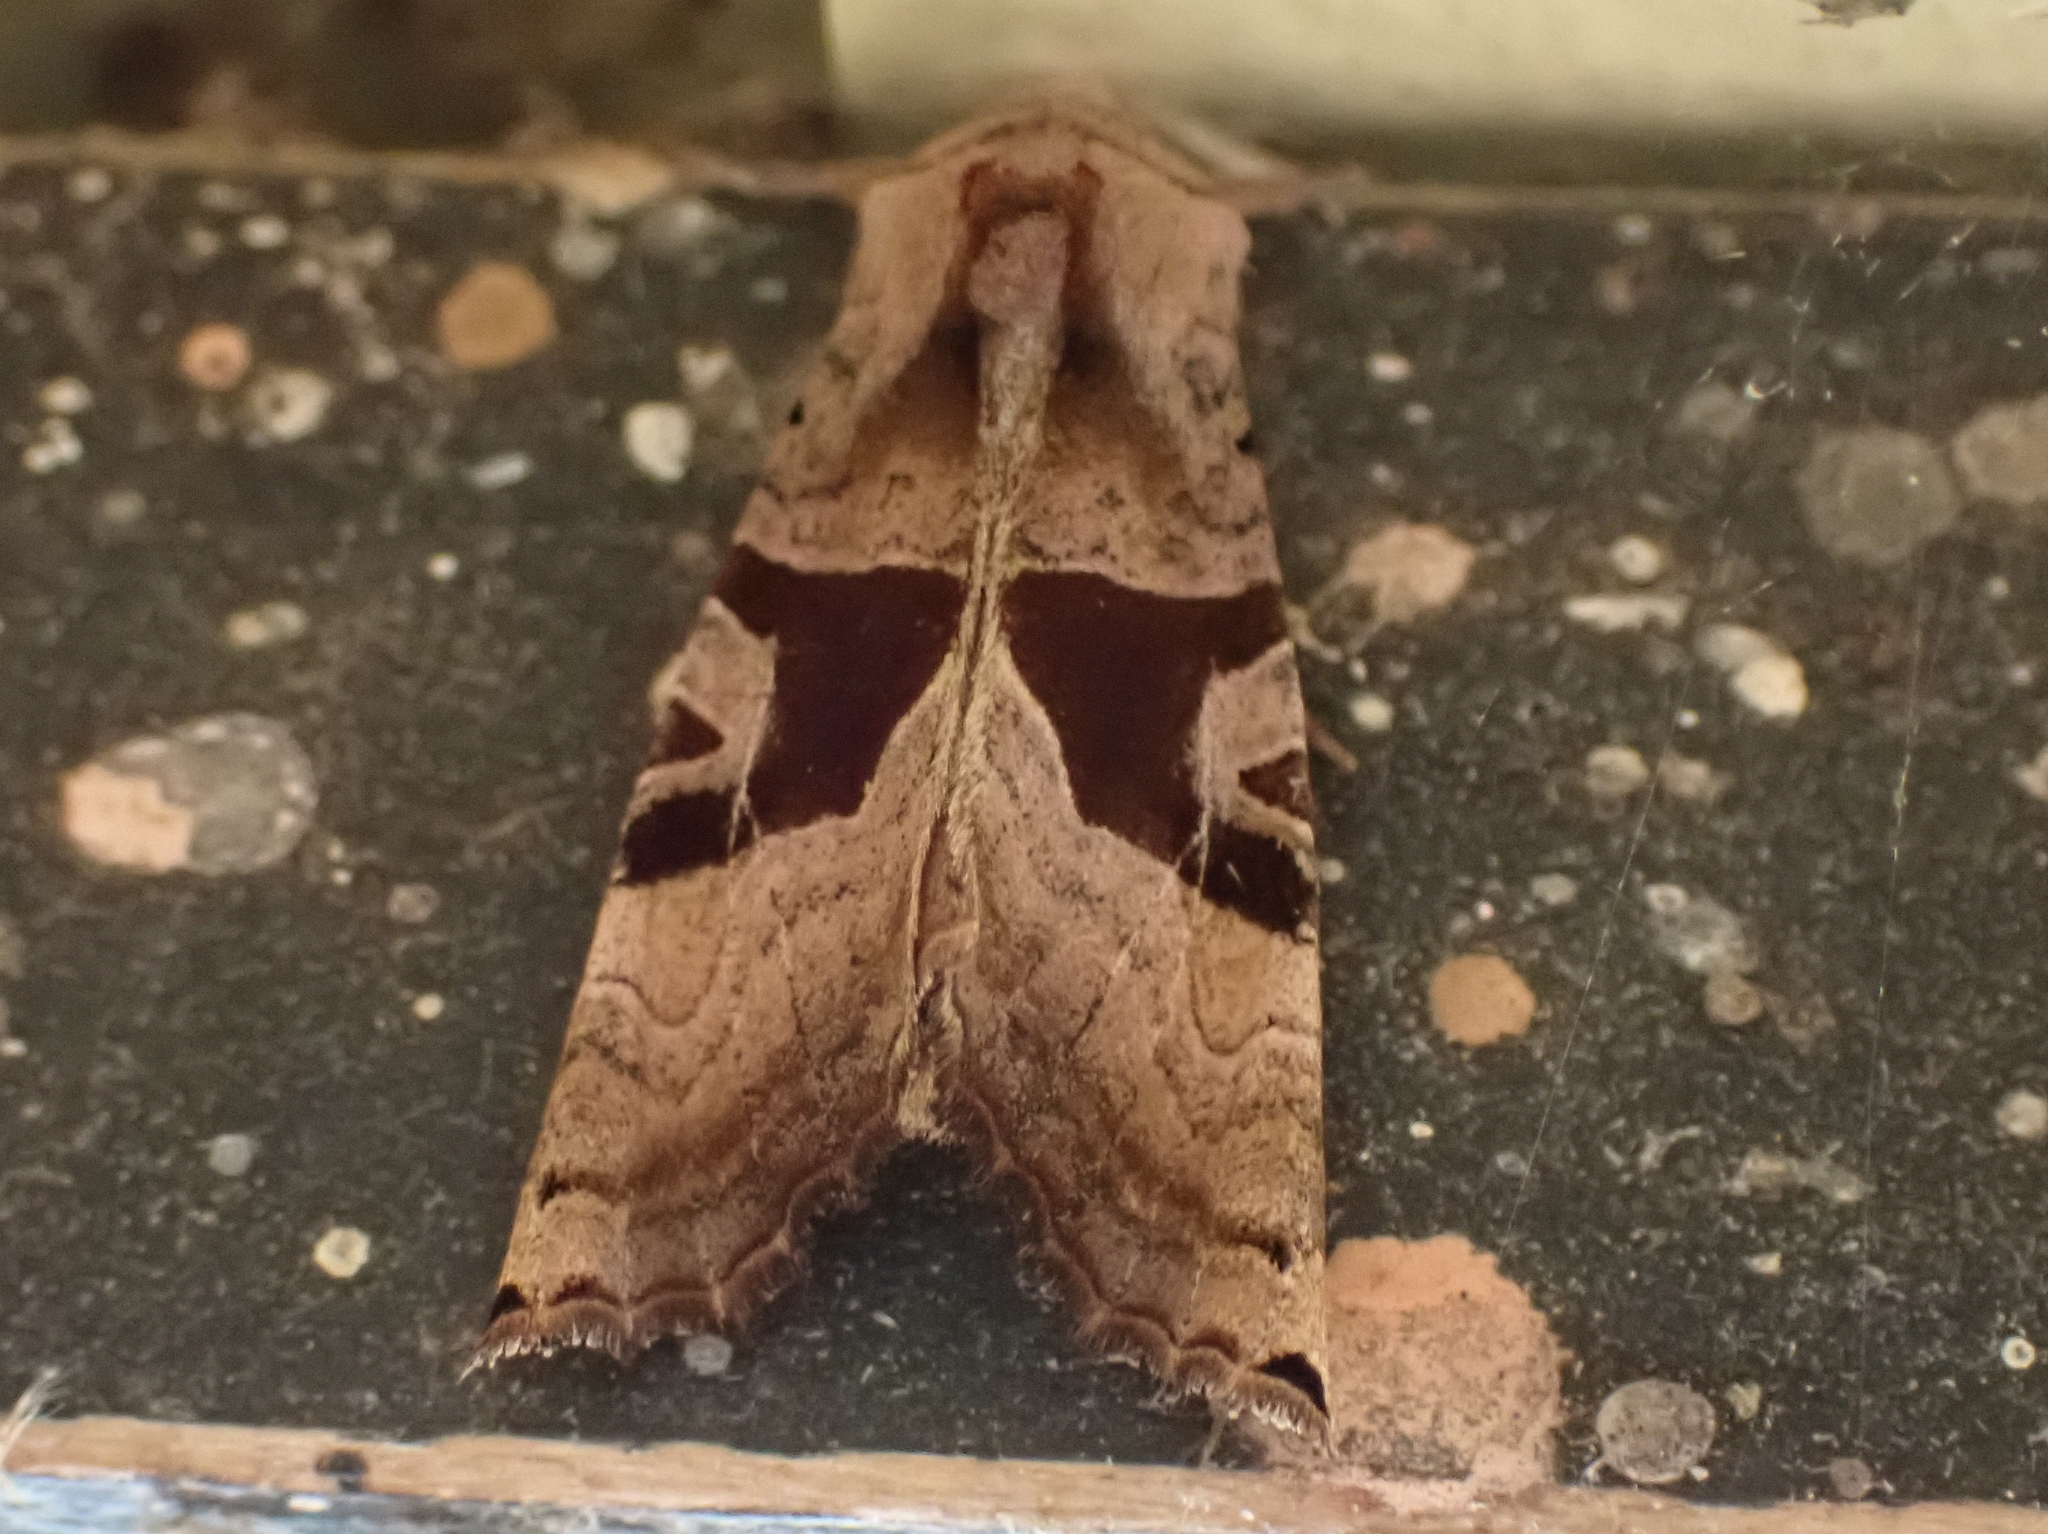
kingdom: Animalia
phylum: Arthropoda
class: Insecta
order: Lepidoptera
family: Noctuidae
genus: Phlogophora
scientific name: Phlogophora periculosa
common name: Brown angle shades
